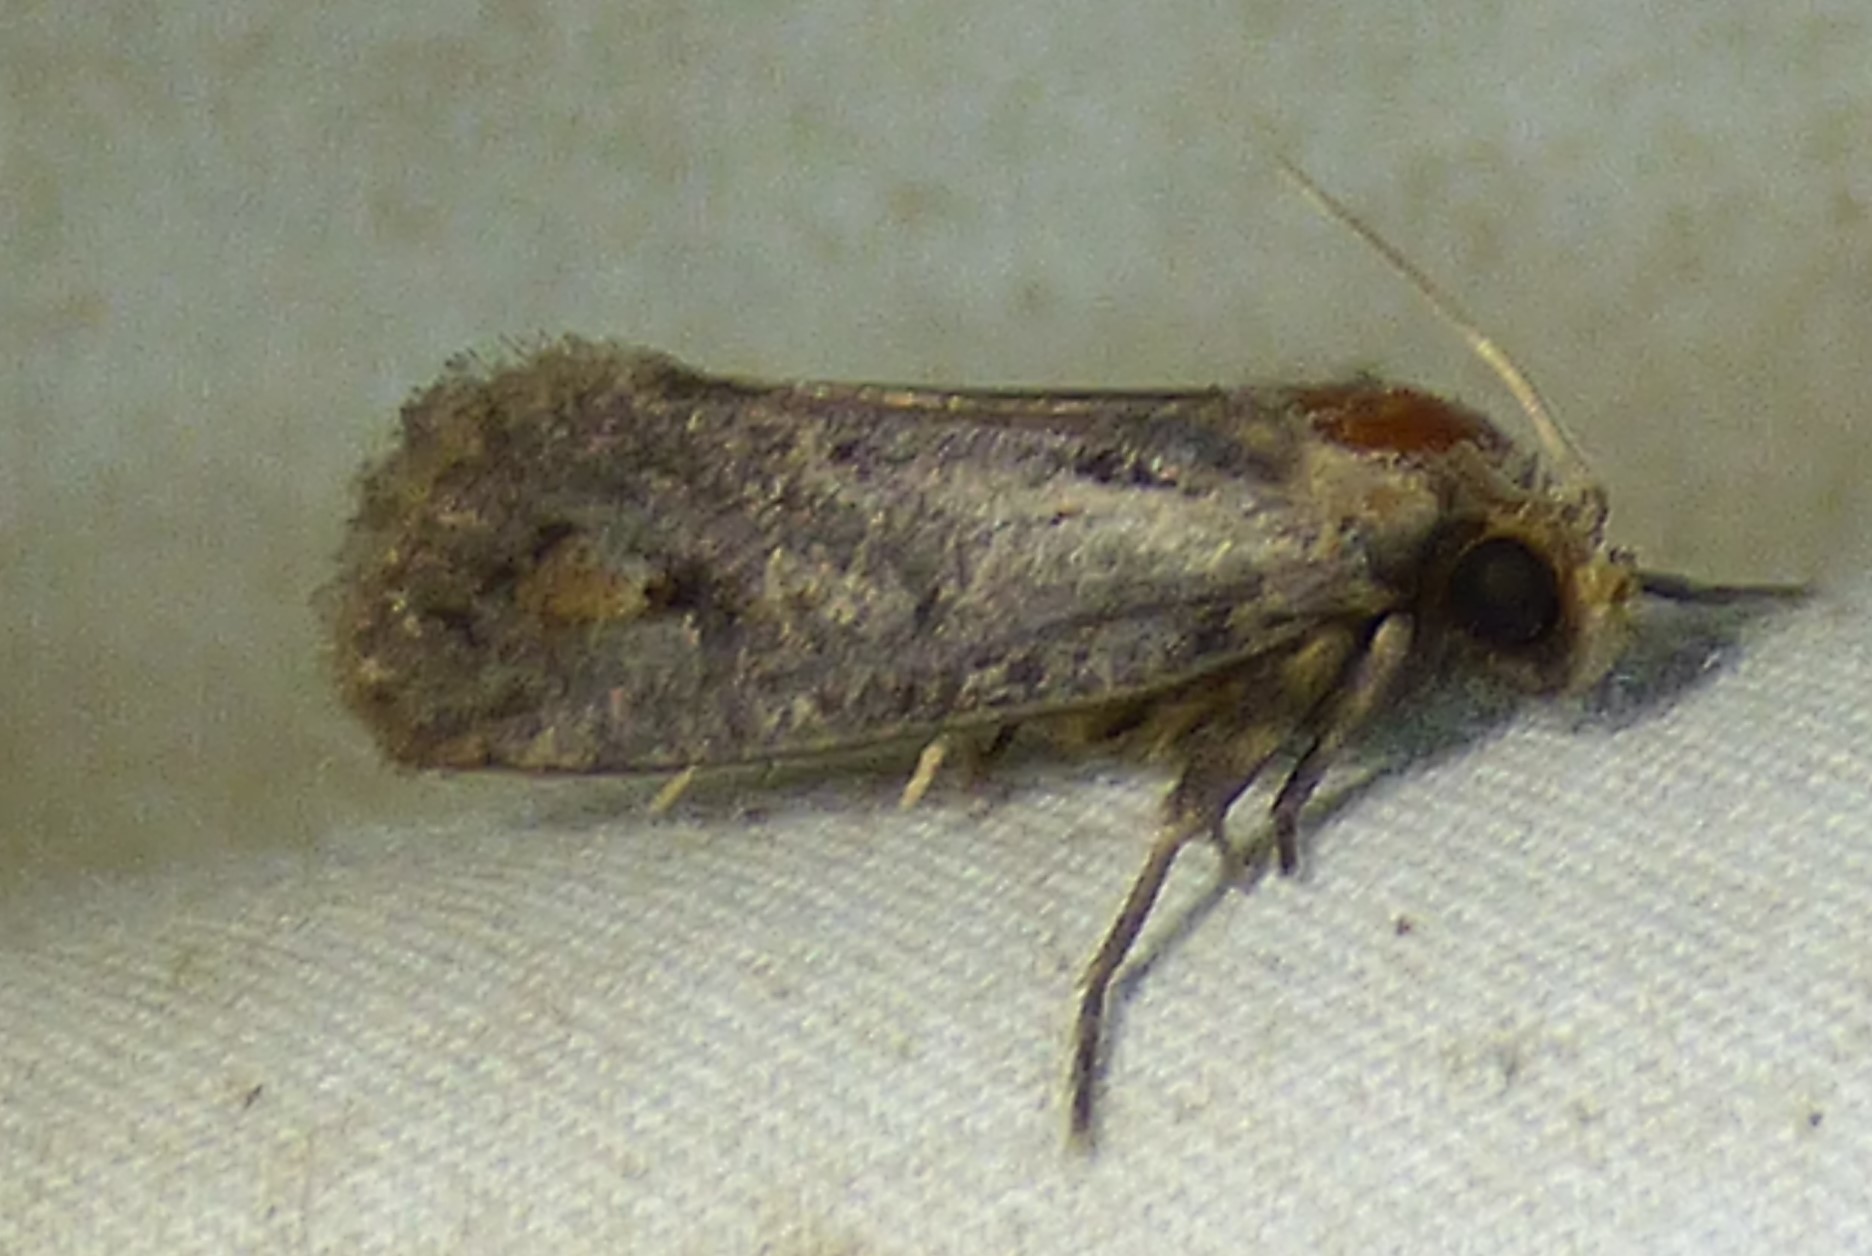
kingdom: Animalia
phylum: Arthropoda
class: Insecta
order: Lepidoptera
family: Tineidae
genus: Acrolophus
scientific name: Acrolophus popeanella
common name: Clemens' grass tubeworm moth
